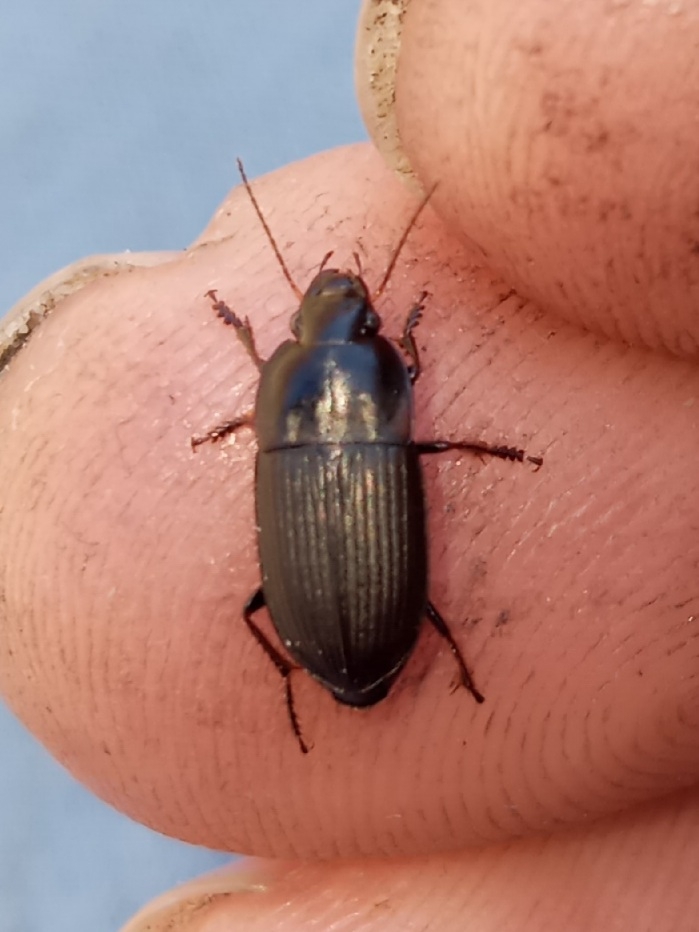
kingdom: Animalia
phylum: Arthropoda
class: Insecta
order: Coleoptera
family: Carabidae
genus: Anisodactylus
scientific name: Anisodactylus rusticus
